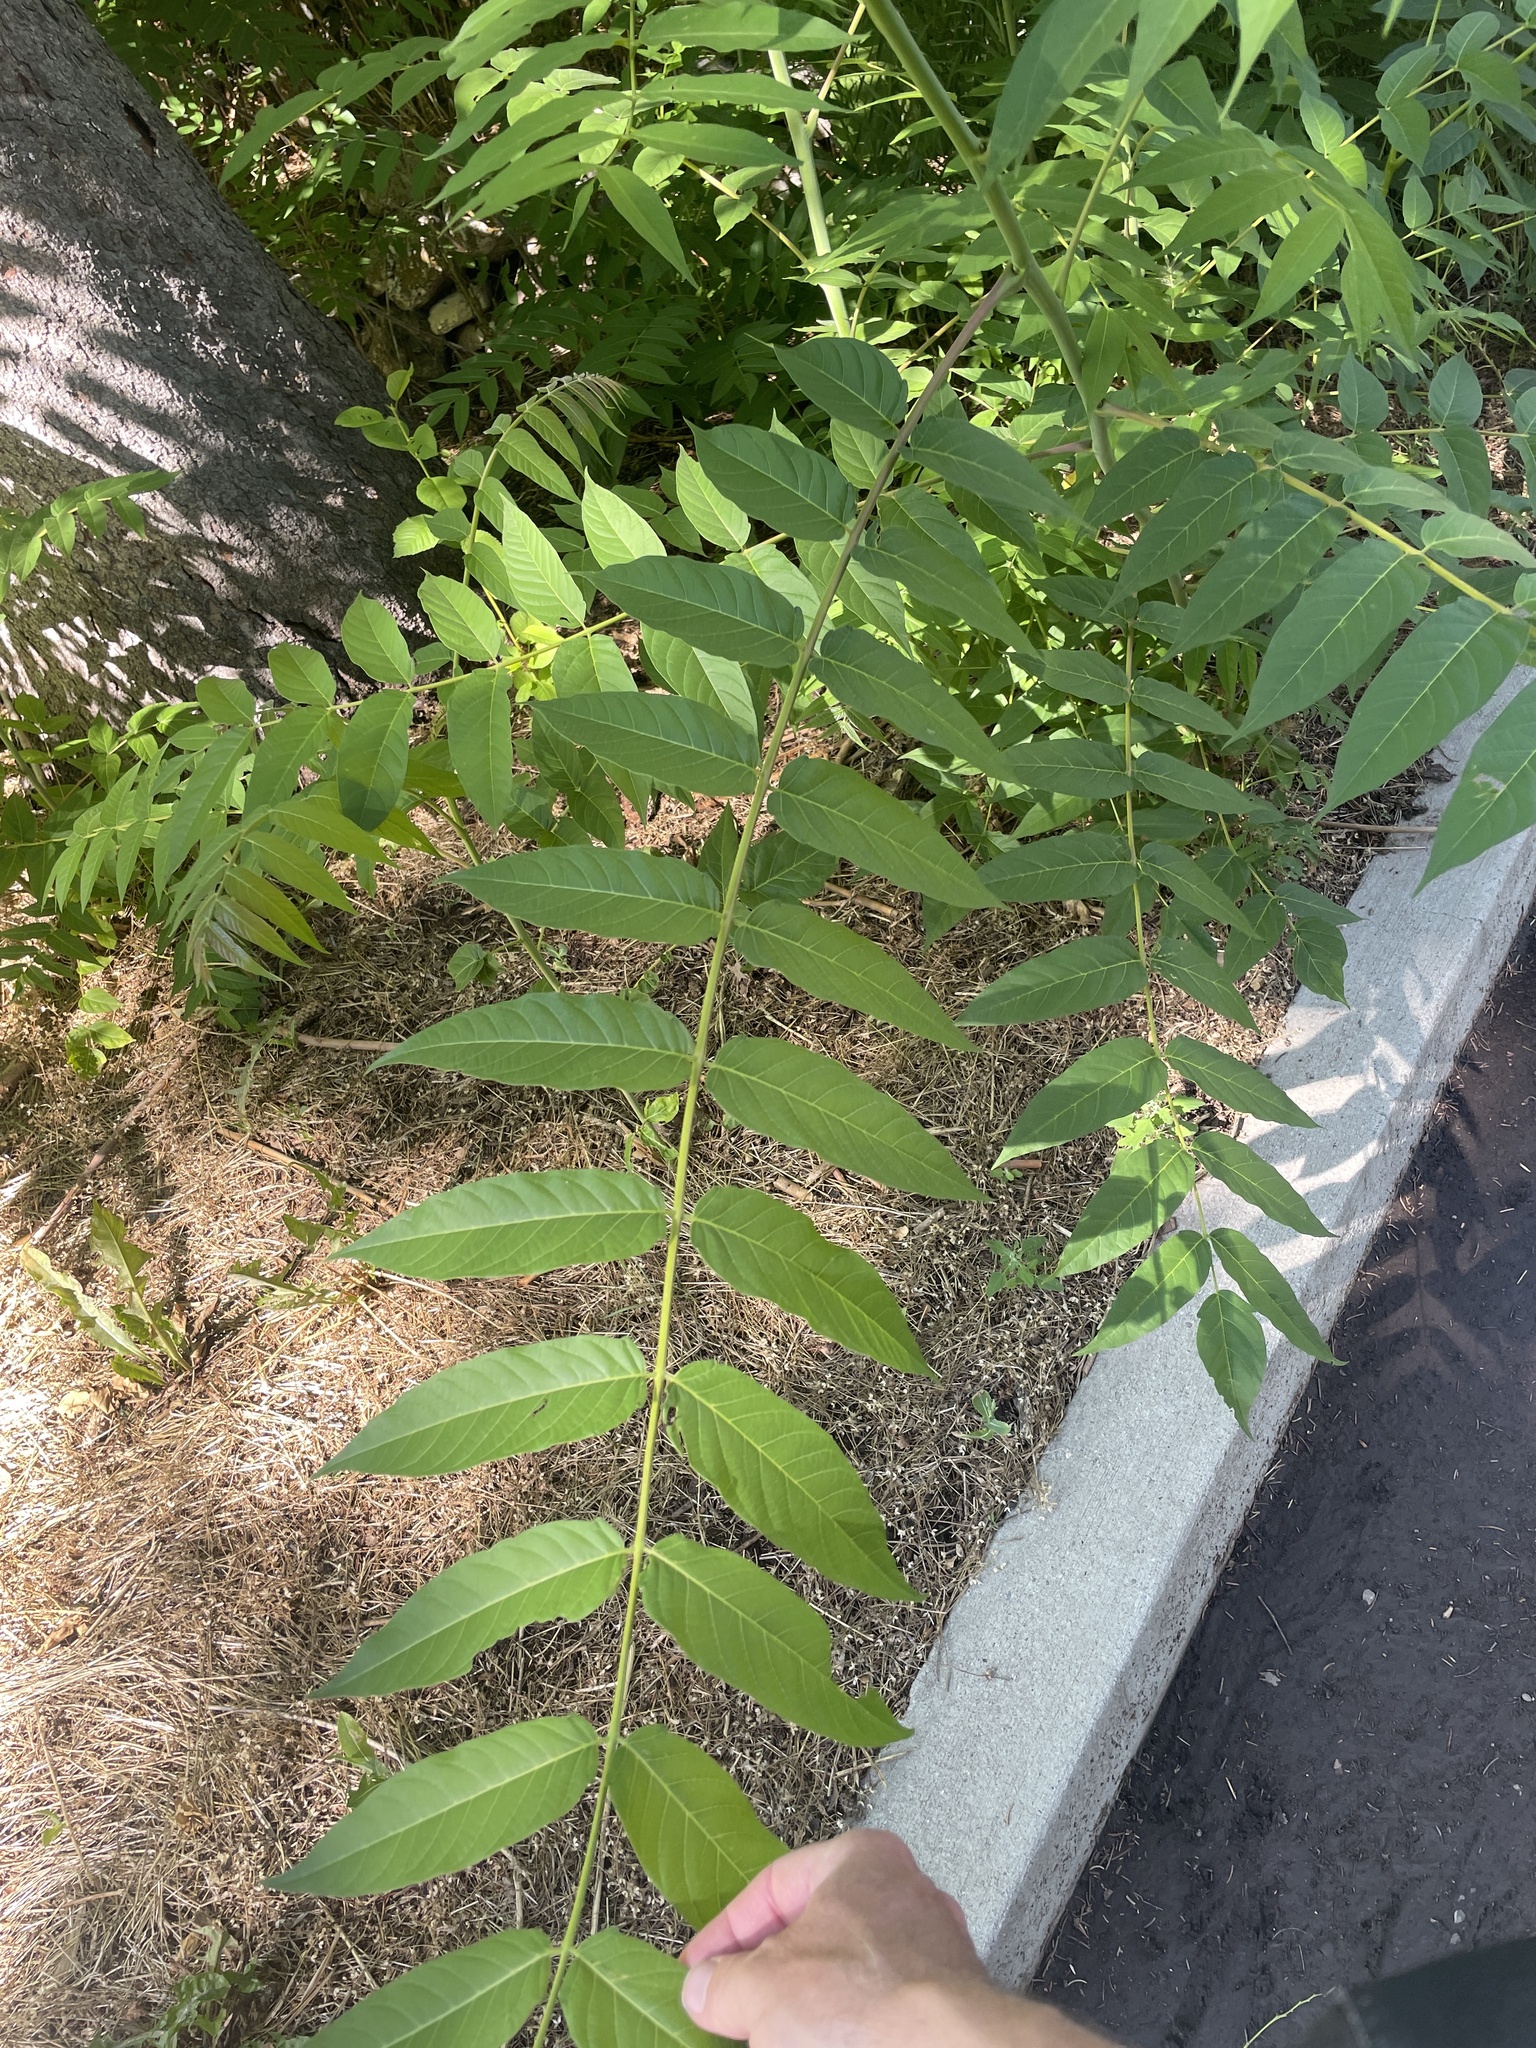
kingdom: Plantae
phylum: Tracheophyta
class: Magnoliopsida
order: Sapindales
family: Simaroubaceae
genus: Ailanthus
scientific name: Ailanthus altissima
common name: Tree-of-heaven
